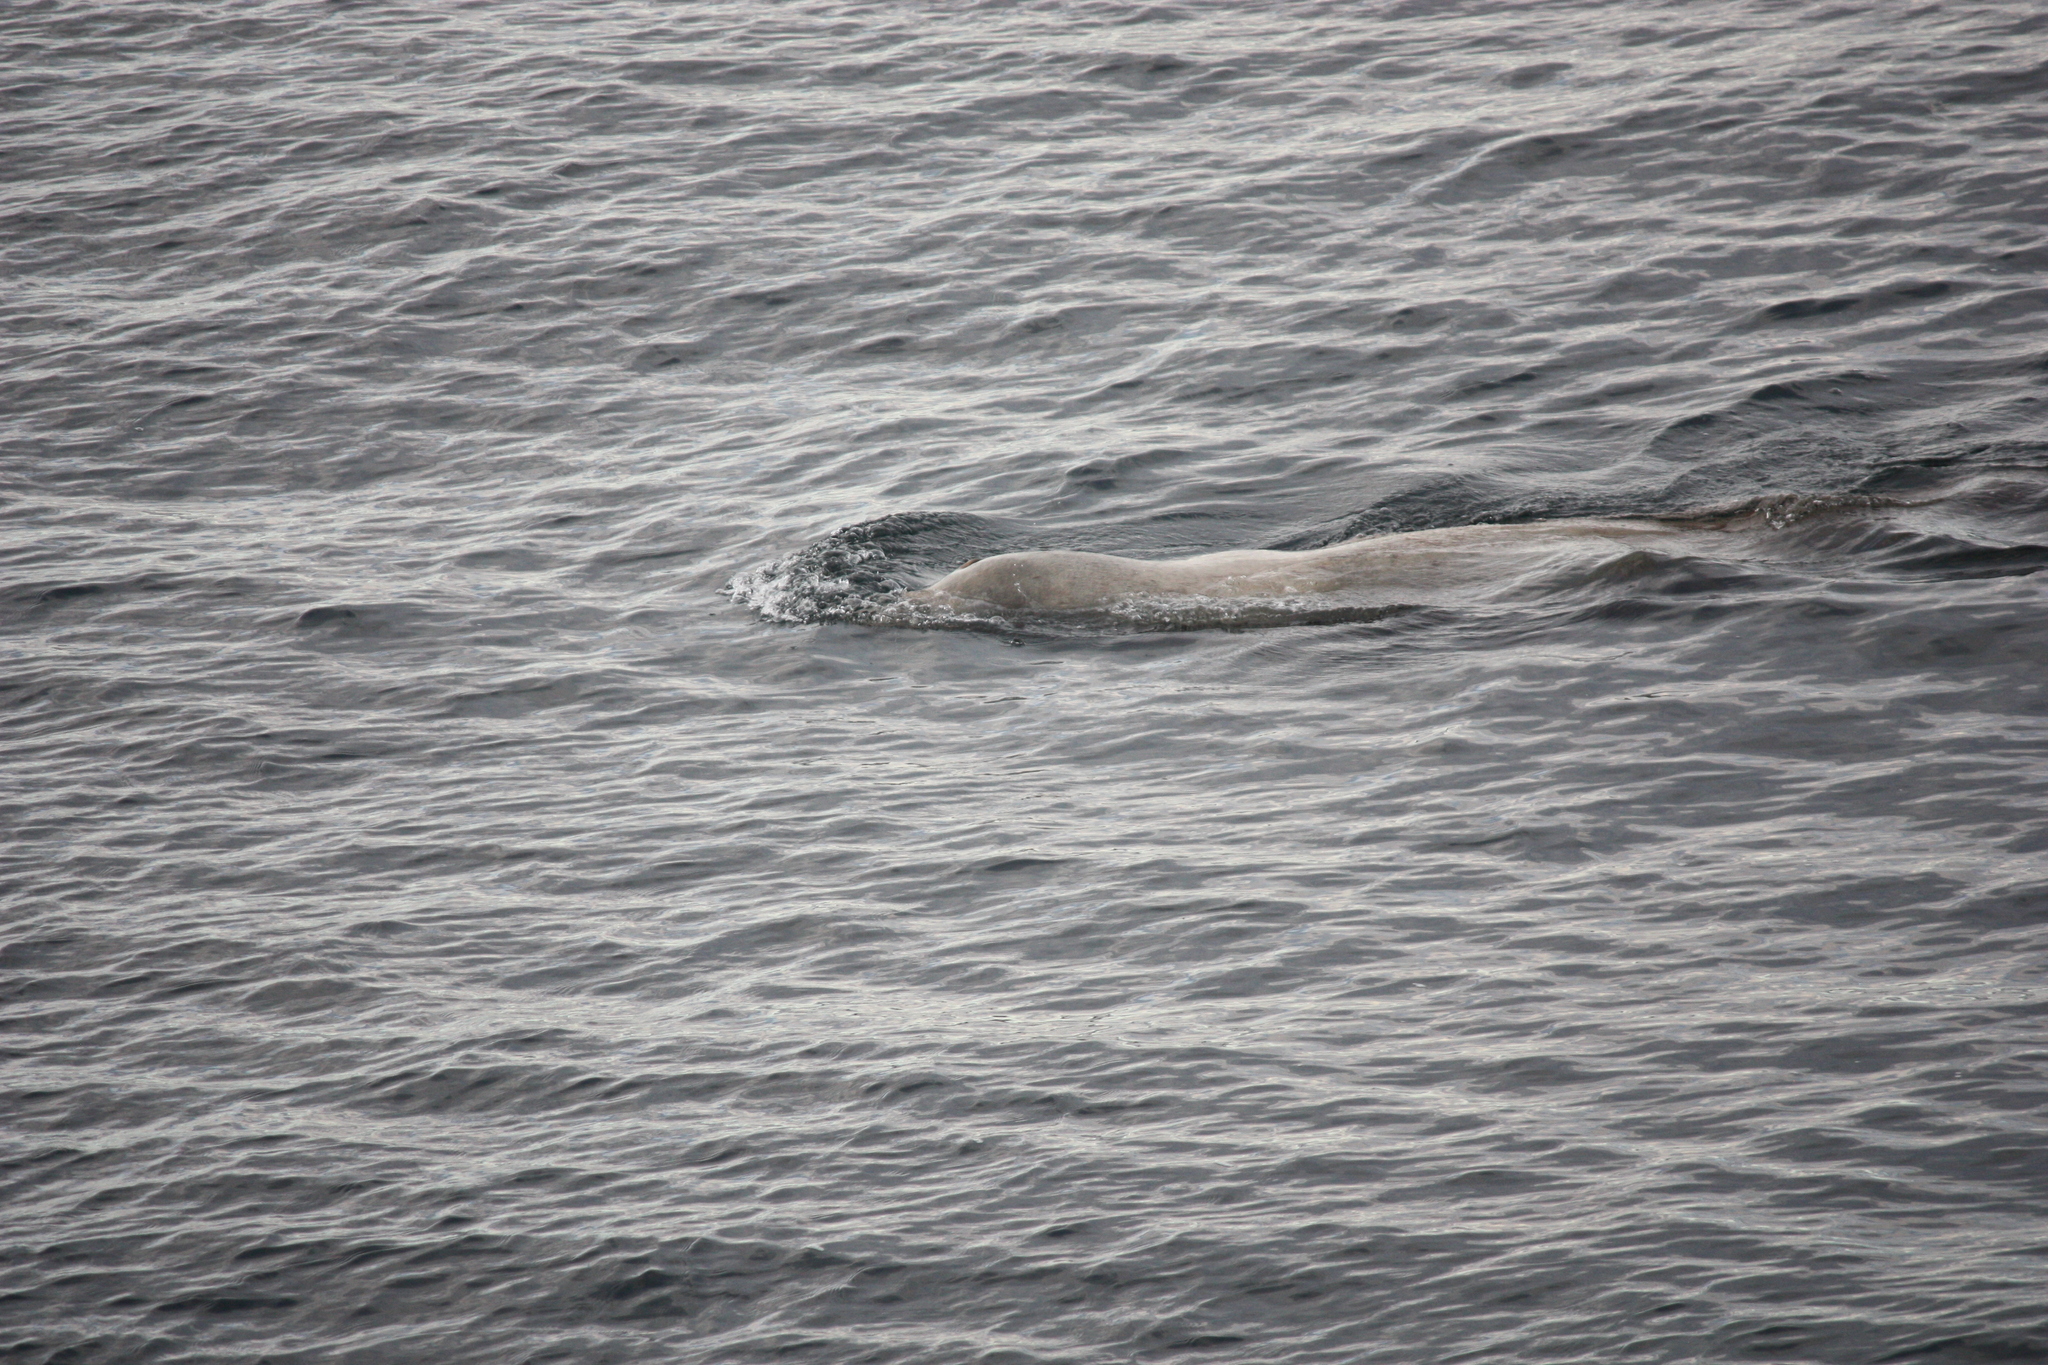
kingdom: Animalia
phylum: Chordata
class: Mammalia
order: Carnivora
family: Otariidae
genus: Eumetopias
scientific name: Eumetopias jubatus
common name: Steller sea lion
